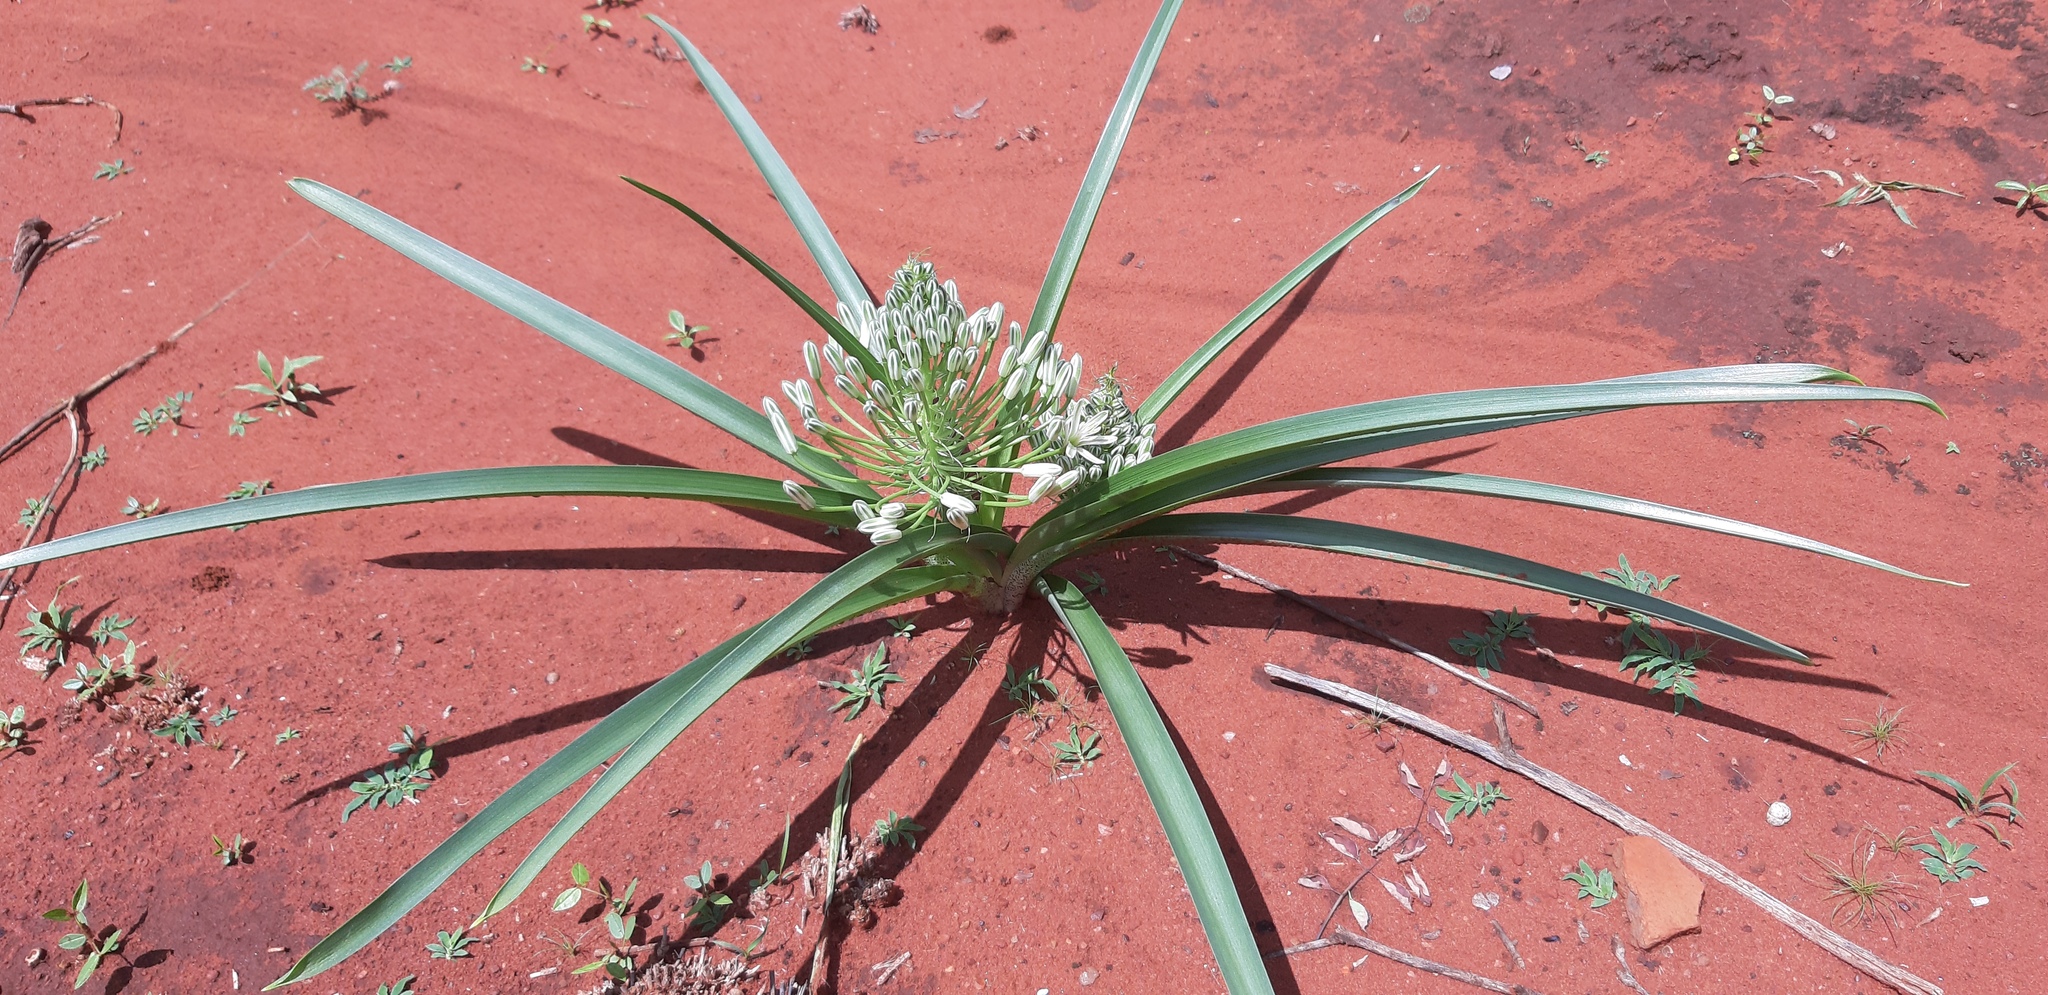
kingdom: Plantae
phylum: Tracheophyta
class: Liliopsida
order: Asparagales
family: Asparagaceae
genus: Albuca
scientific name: Albuca seineri
